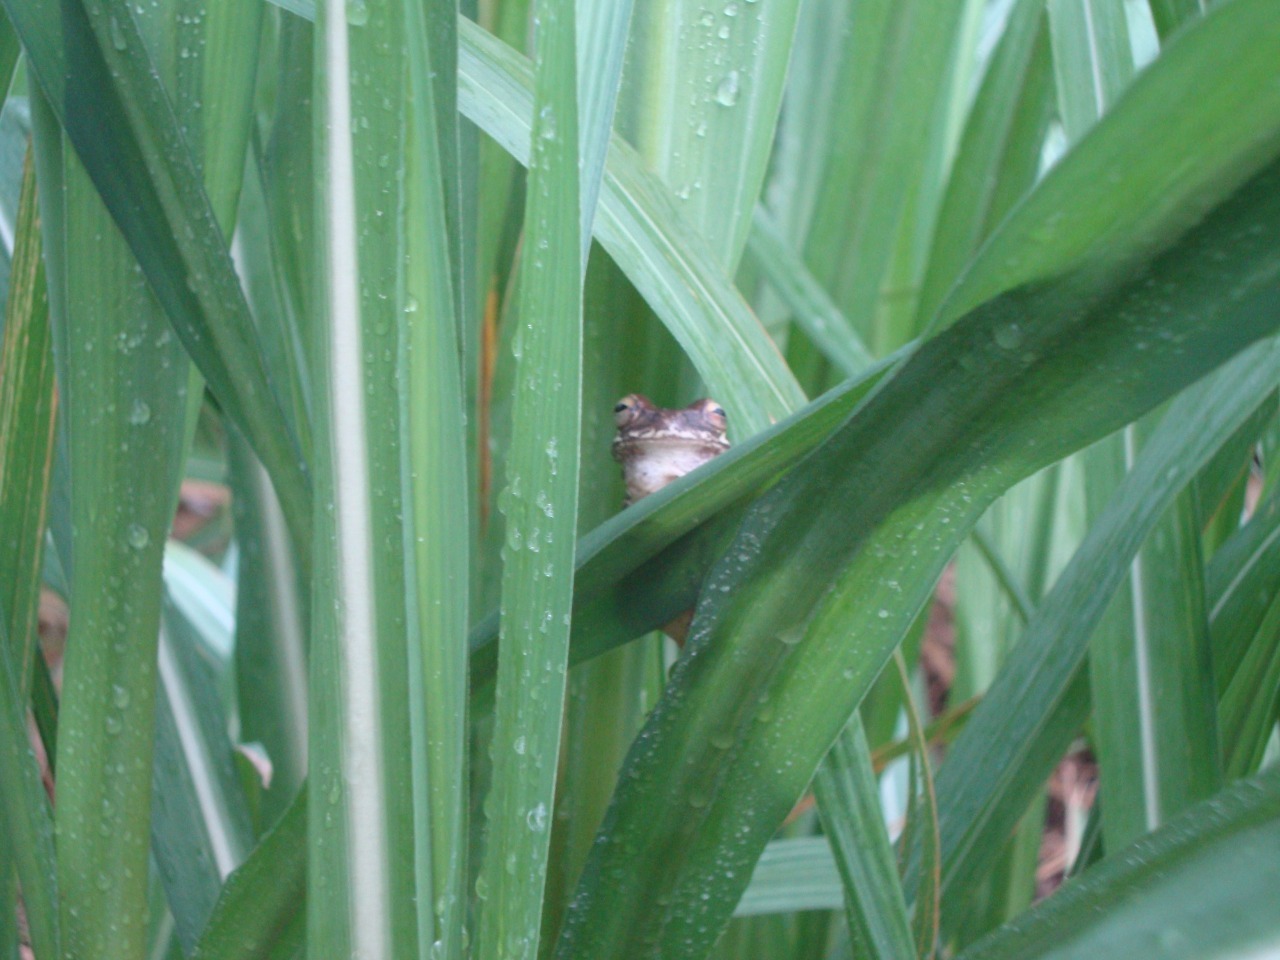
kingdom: Animalia
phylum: Chordata
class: Amphibia
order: Anura
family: Hylidae
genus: Smilisca
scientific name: Smilisca baudinii
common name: Mexican smilisca
